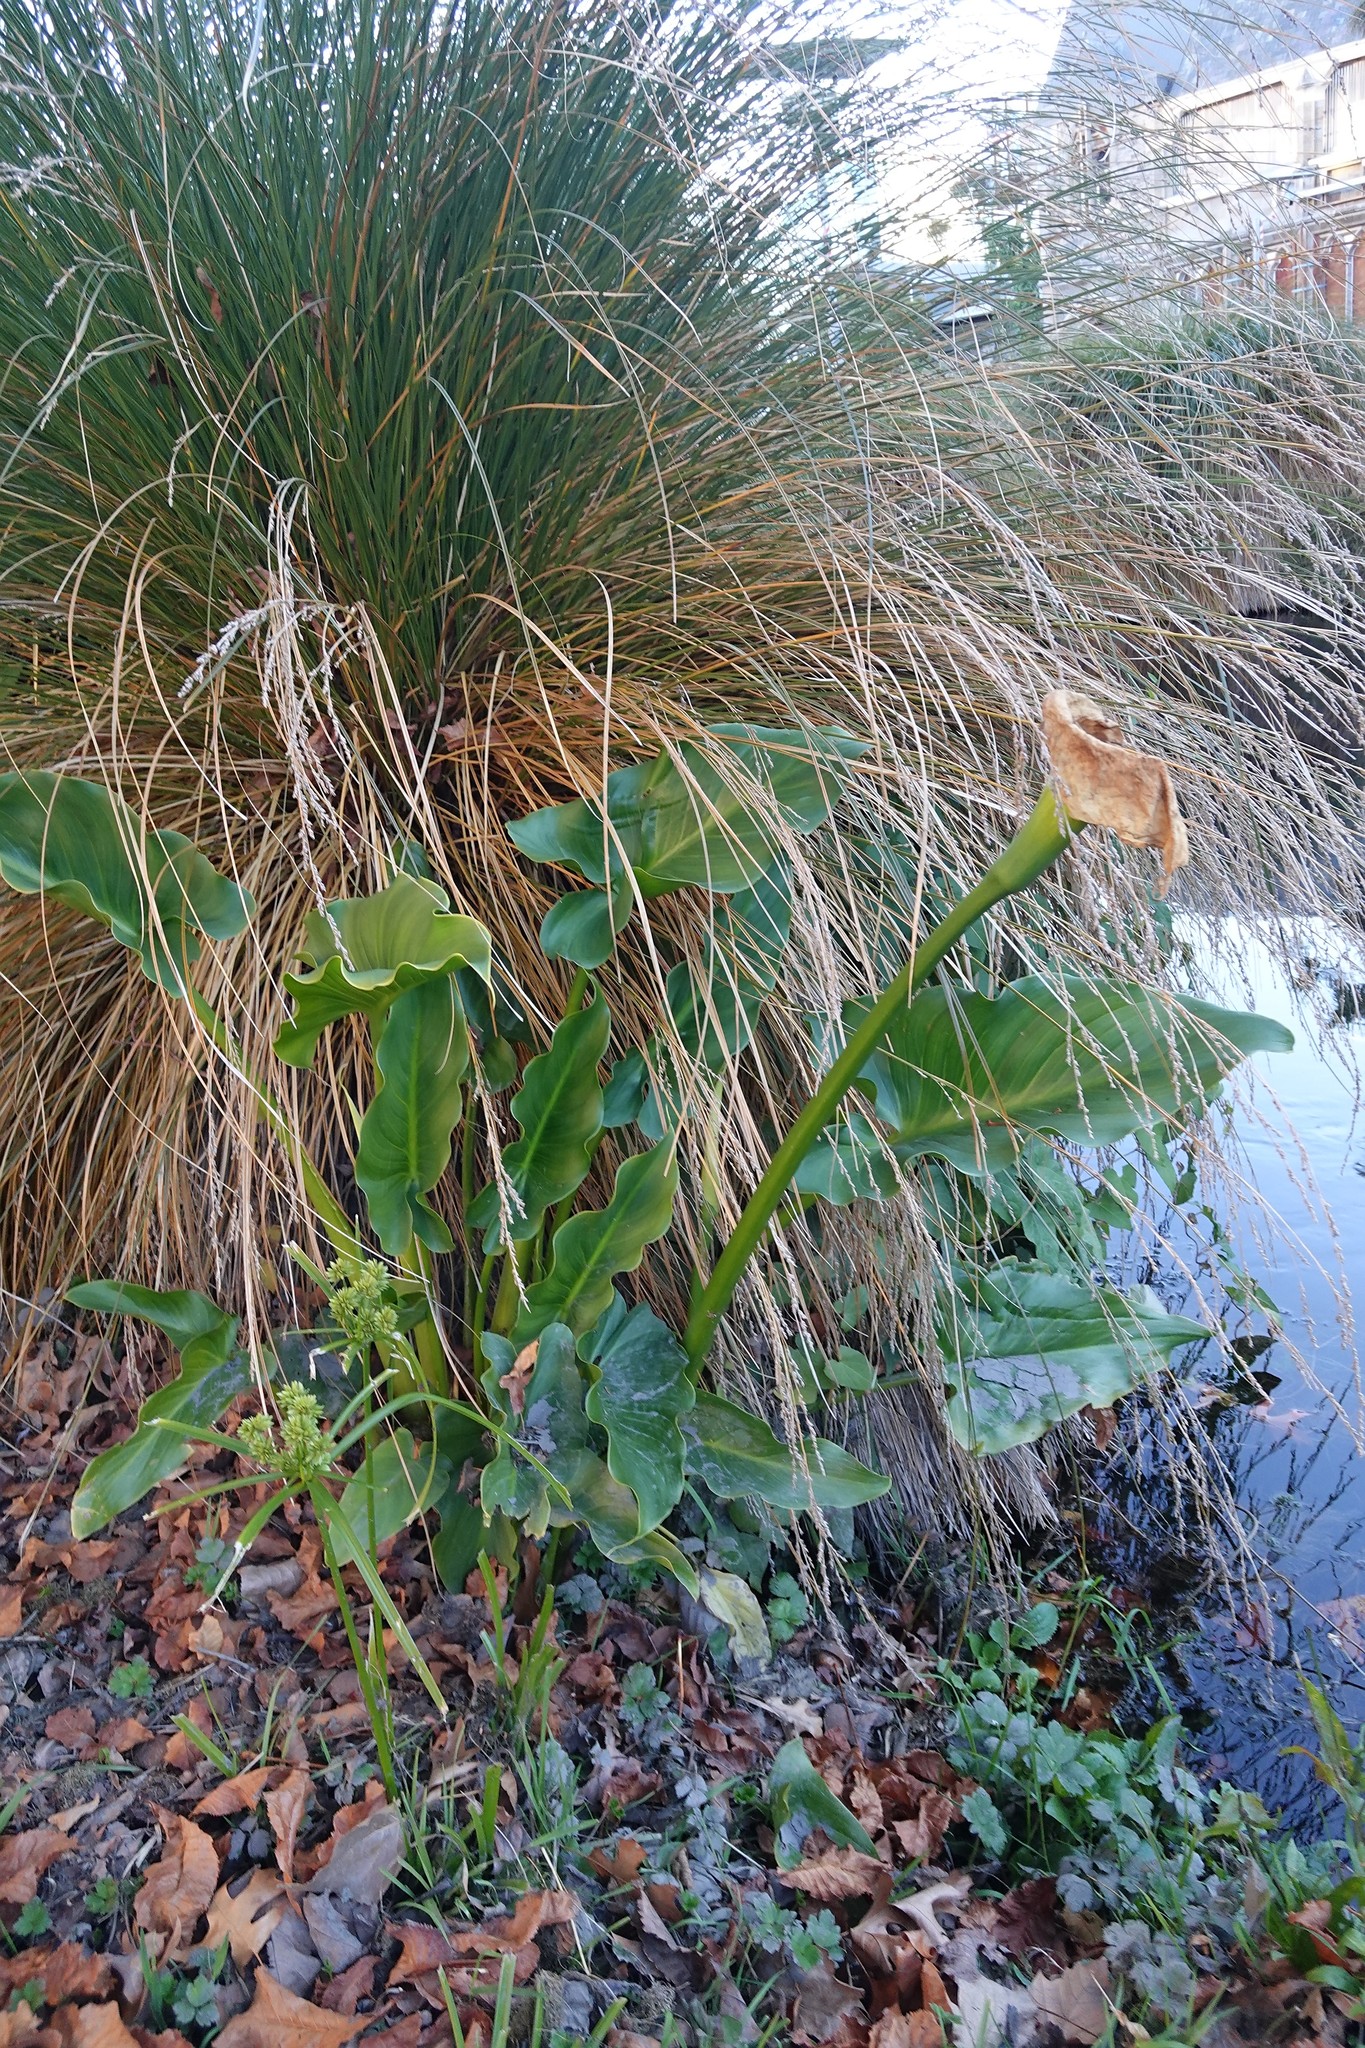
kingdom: Plantae
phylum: Tracheophyta
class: Liliopsida
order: Alismatales
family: Araceae
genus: Zantedeschia
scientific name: Zantedeschia aethiopica
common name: Altar-lily
